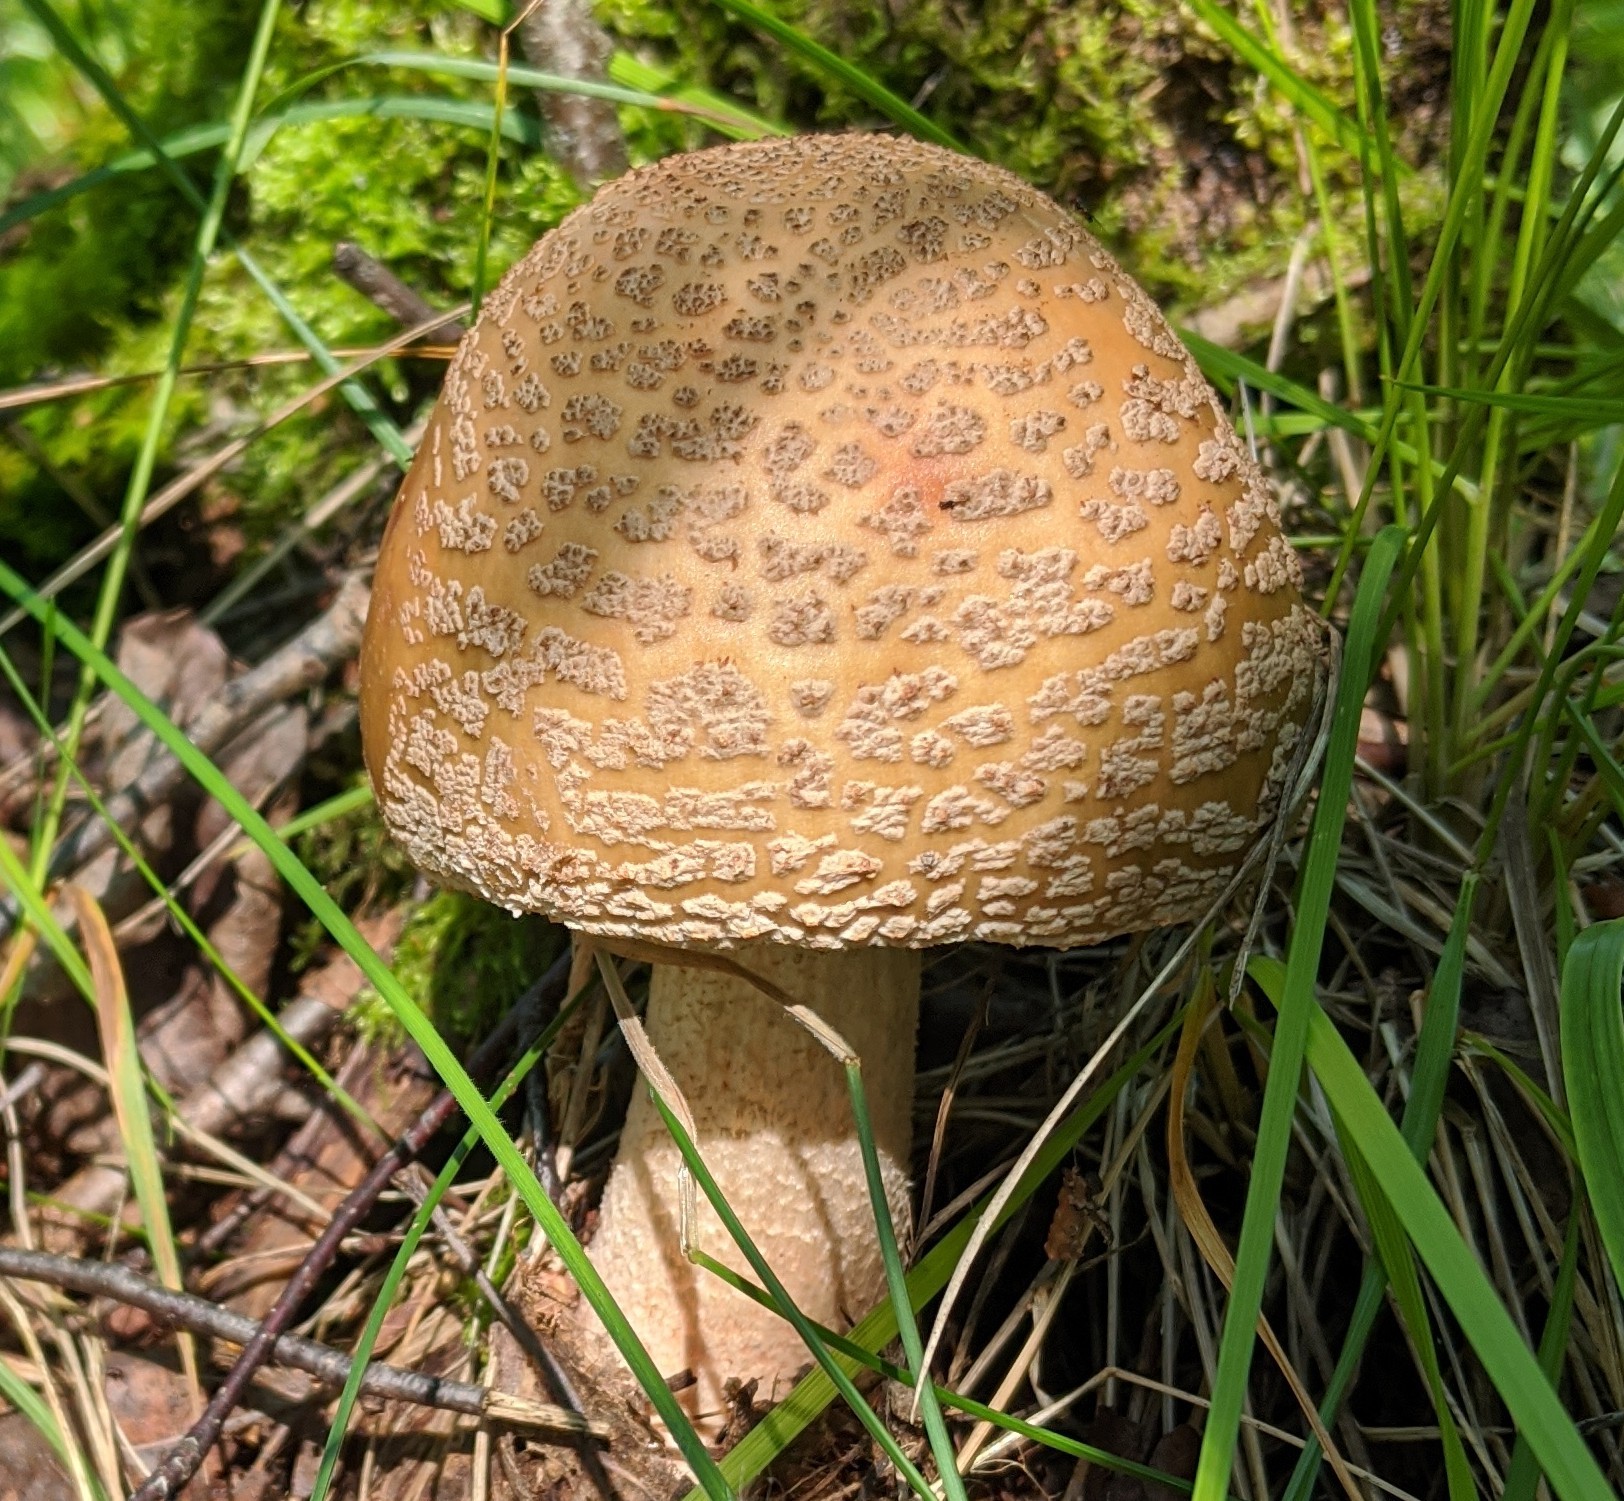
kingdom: Fungi
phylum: Basidiomycota
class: Agaricomycetes
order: Agaricales
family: Amanitaceae
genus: Amanita
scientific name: Amanita rubescens
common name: Blusher
